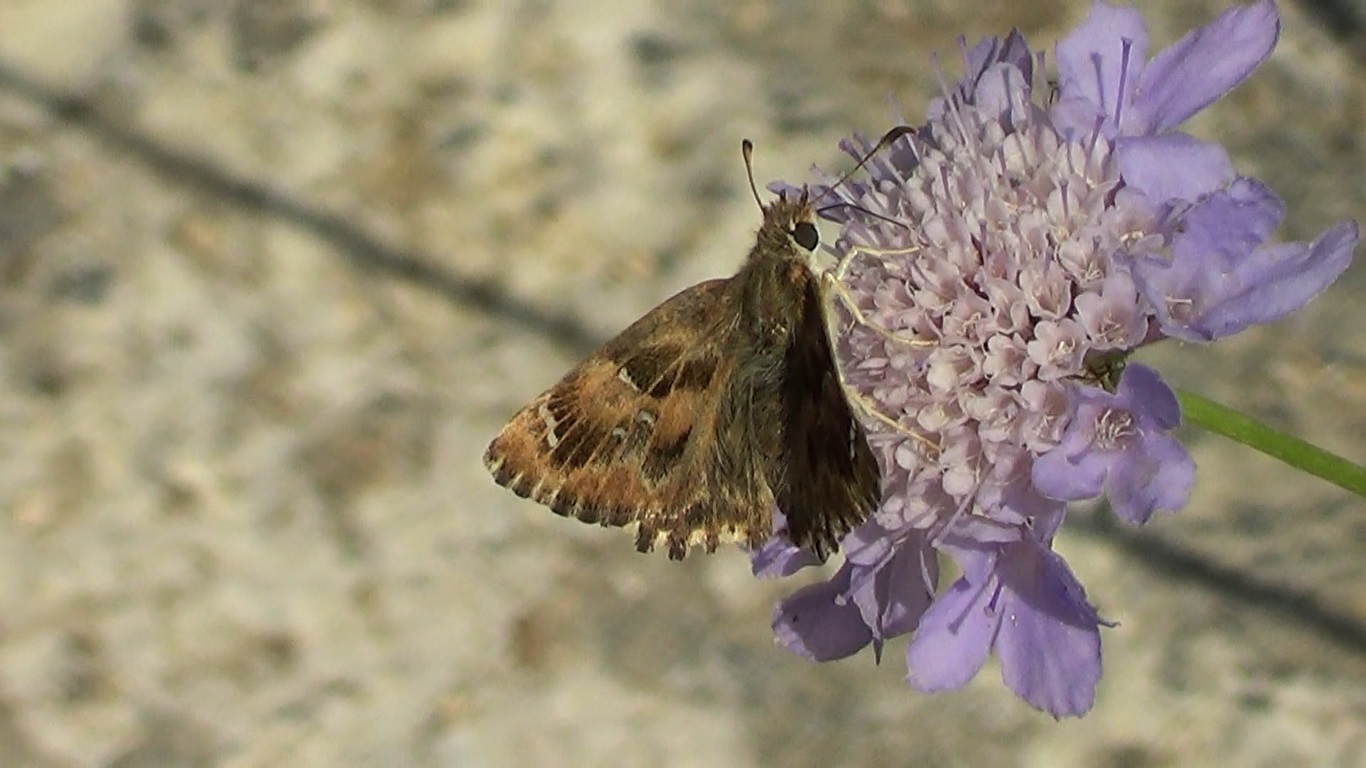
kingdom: Animalia
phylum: Arthropoda
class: Insecta
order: Lepidoptera
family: Hesperiidae
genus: Carcharodus
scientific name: Carcharodus alceae
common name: Mallow skipper
